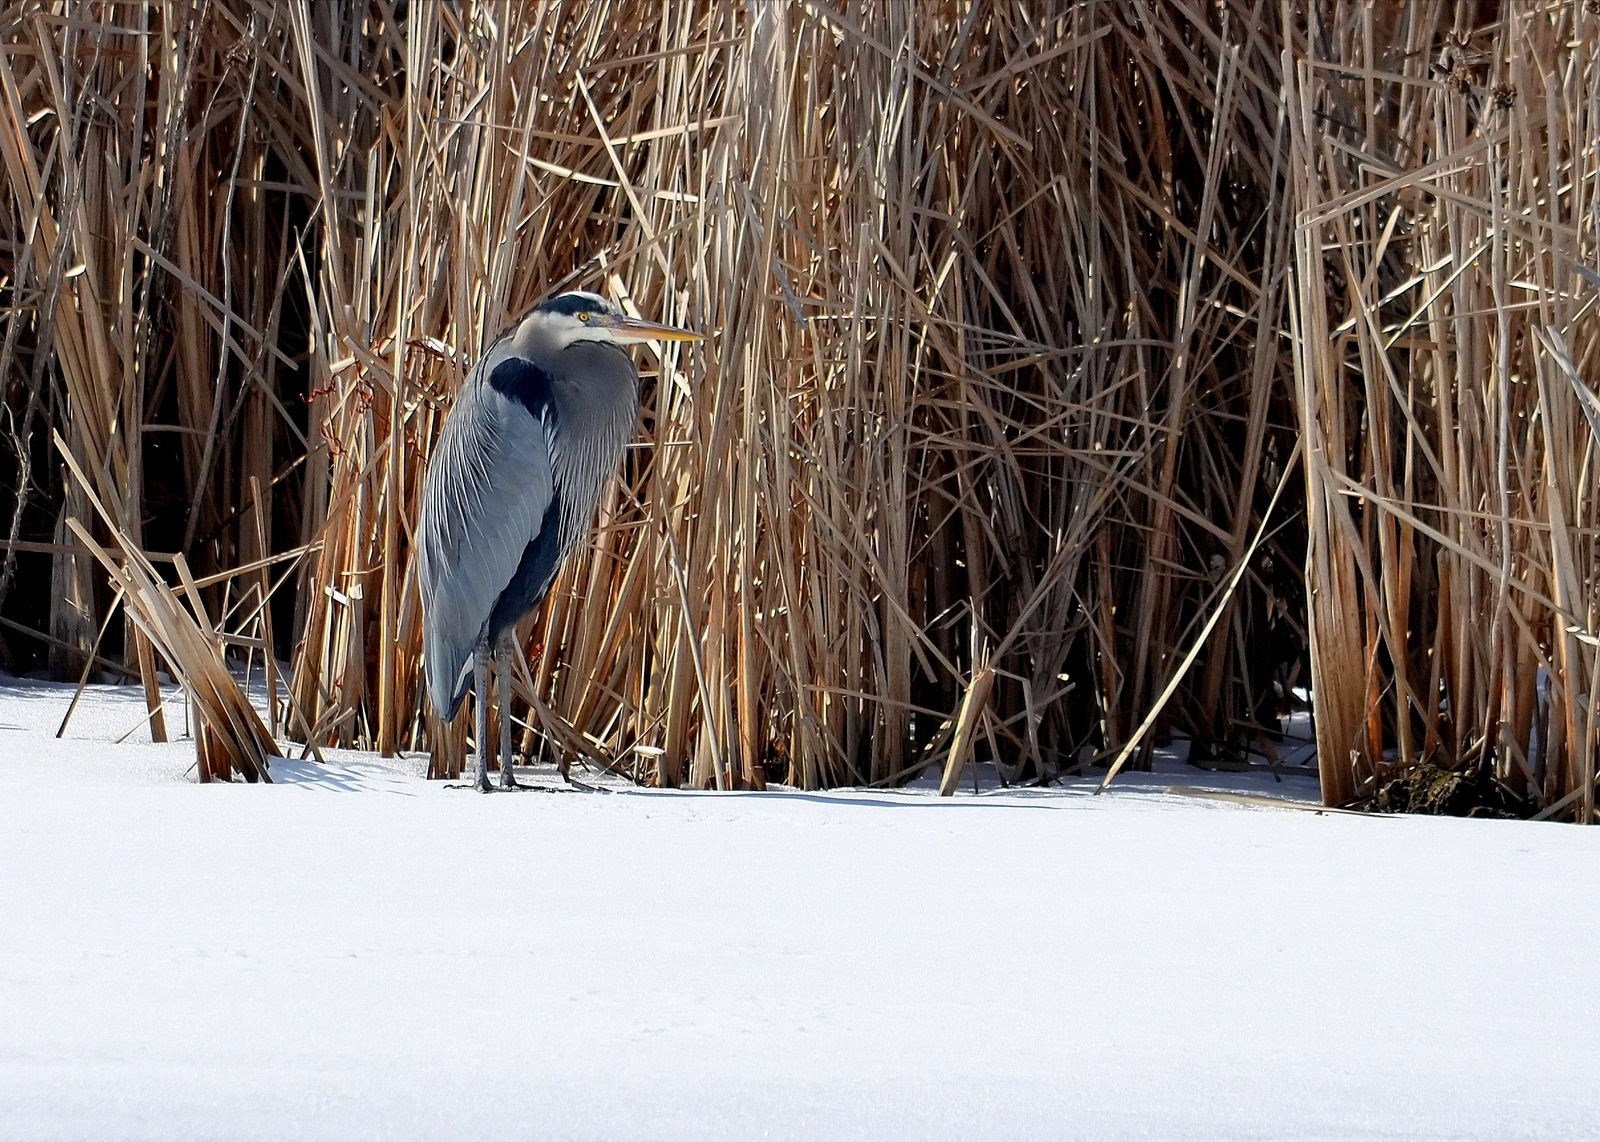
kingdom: Animalia
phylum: Chordata
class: Aves
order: Pelecaniformes
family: Ardeidae
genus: Ardea
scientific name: Ardea herodias
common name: Great blue heron
